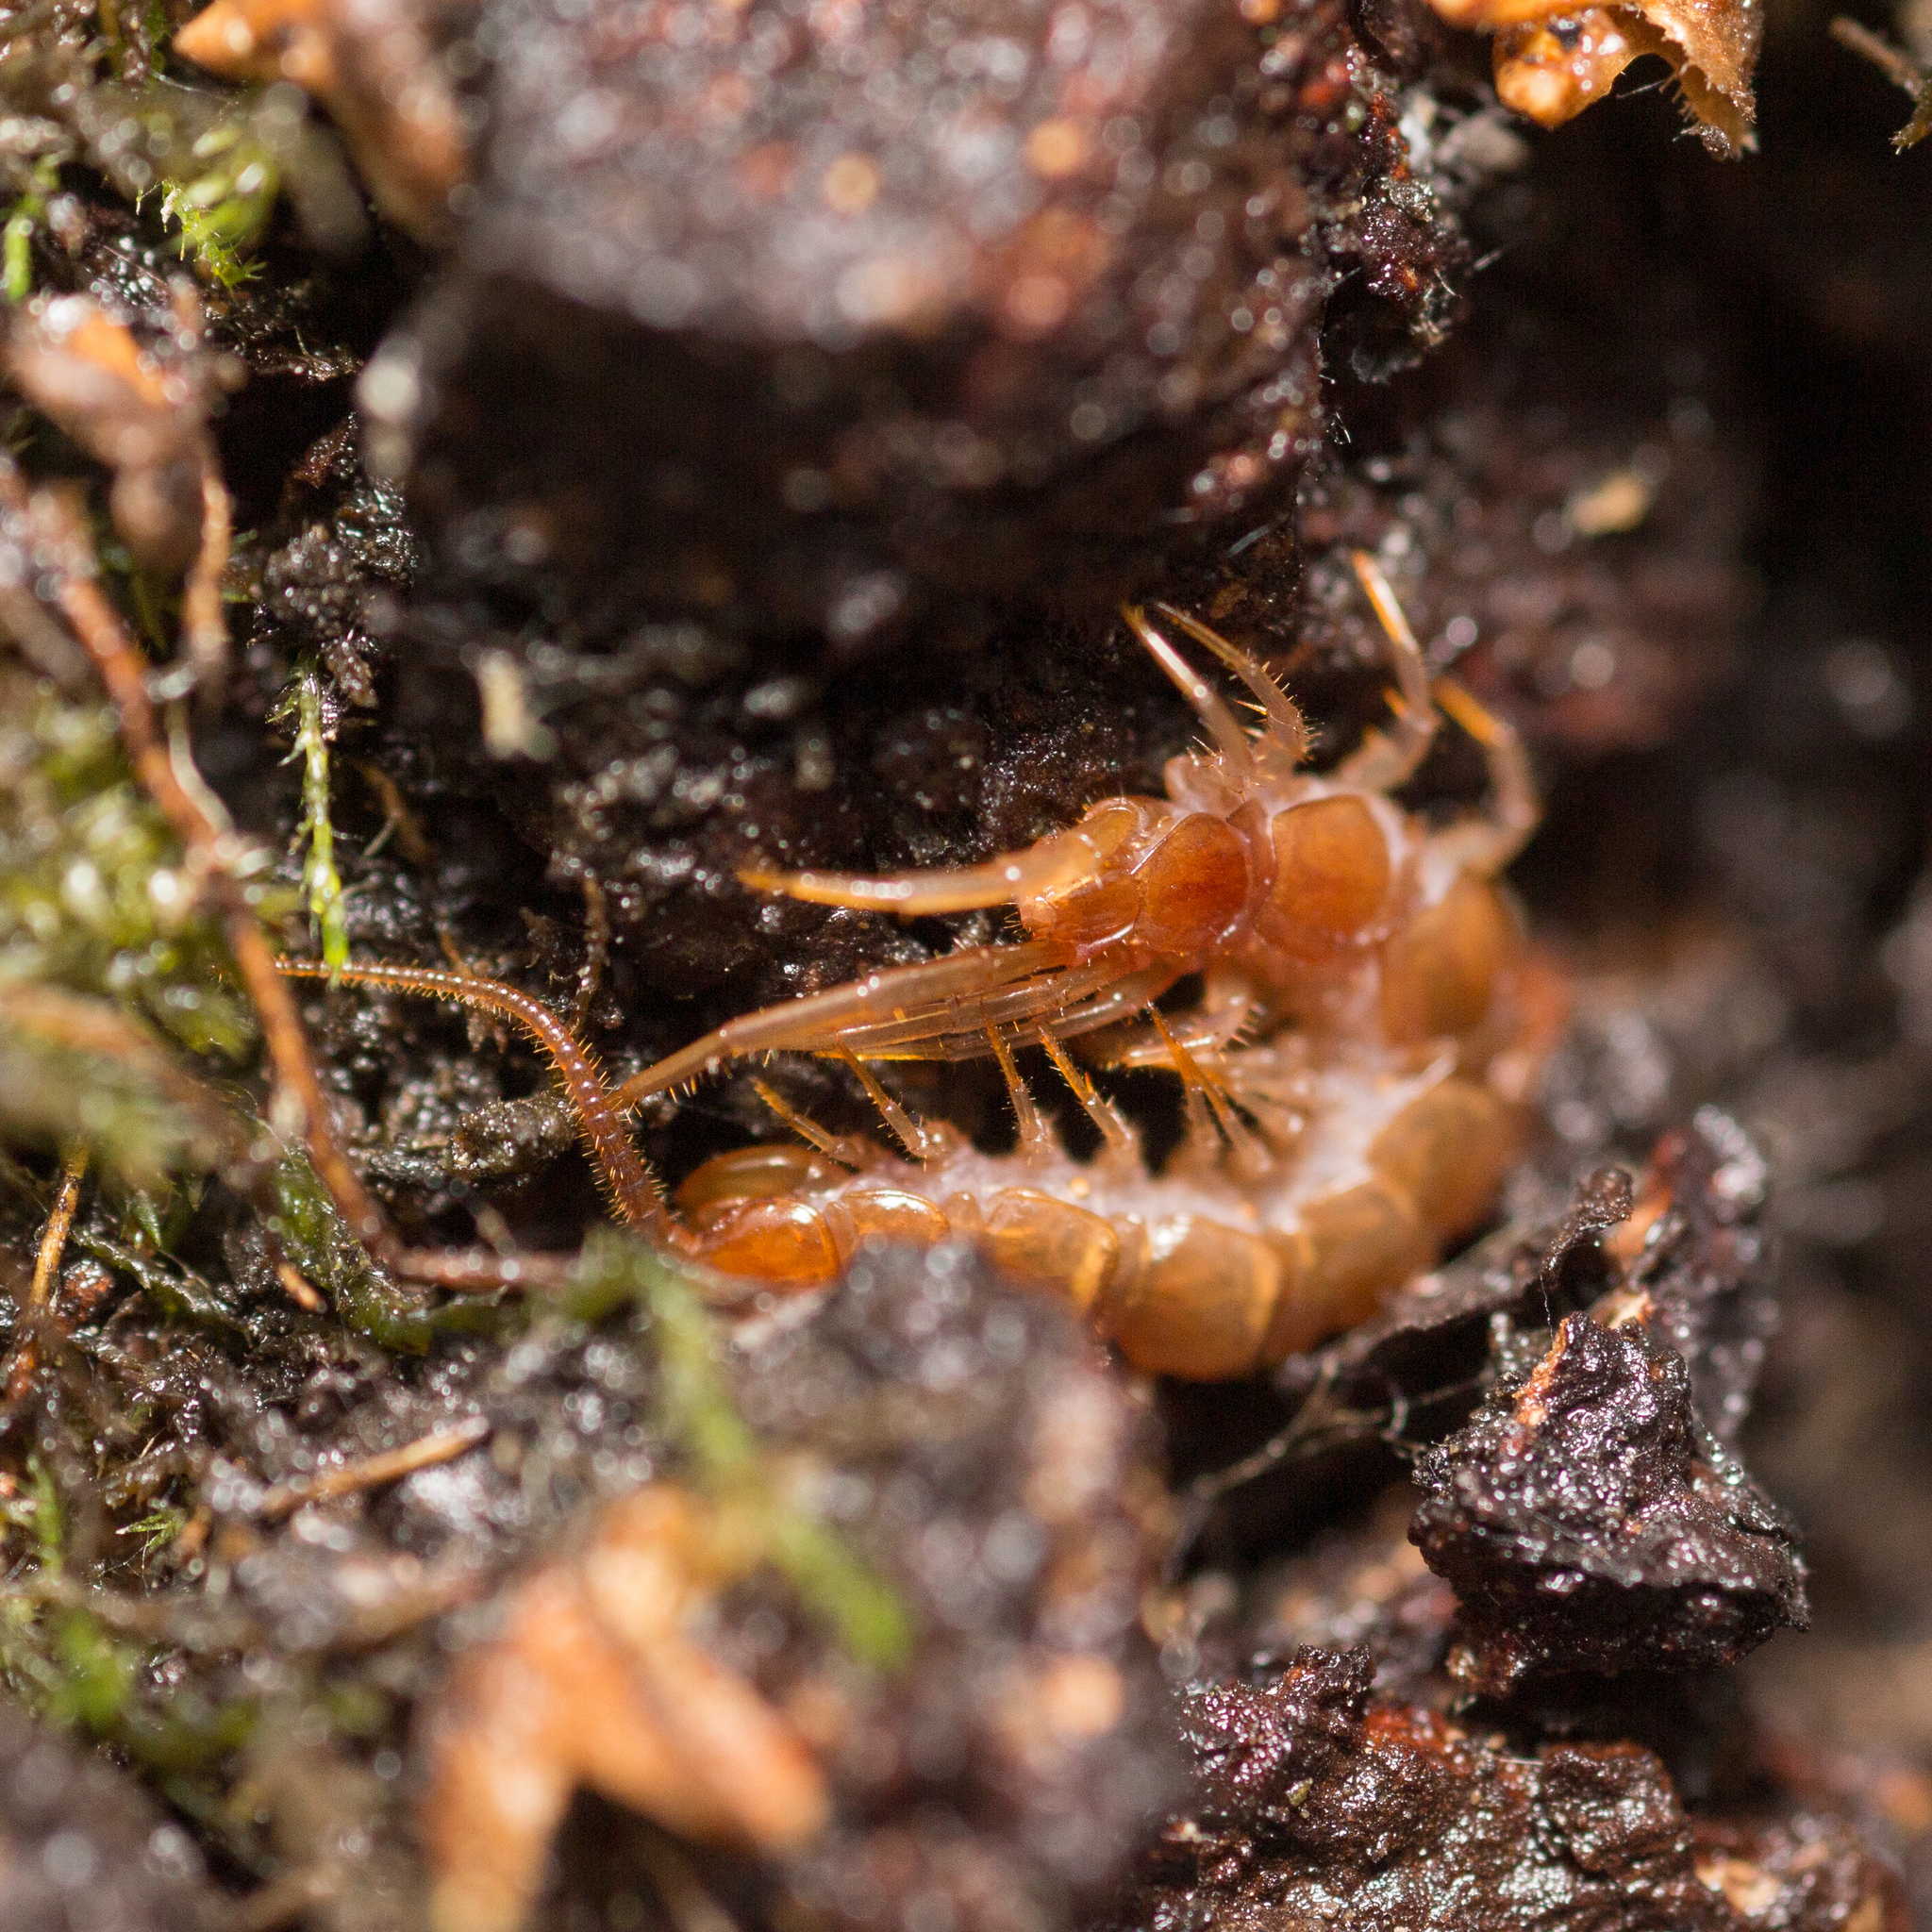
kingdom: Animalia
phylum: Arthropoda
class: Chilopoda
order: Lithobiomorpha
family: Lithobiidae
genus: Lithobius
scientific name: Lithobius forficatus
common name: Centipede
